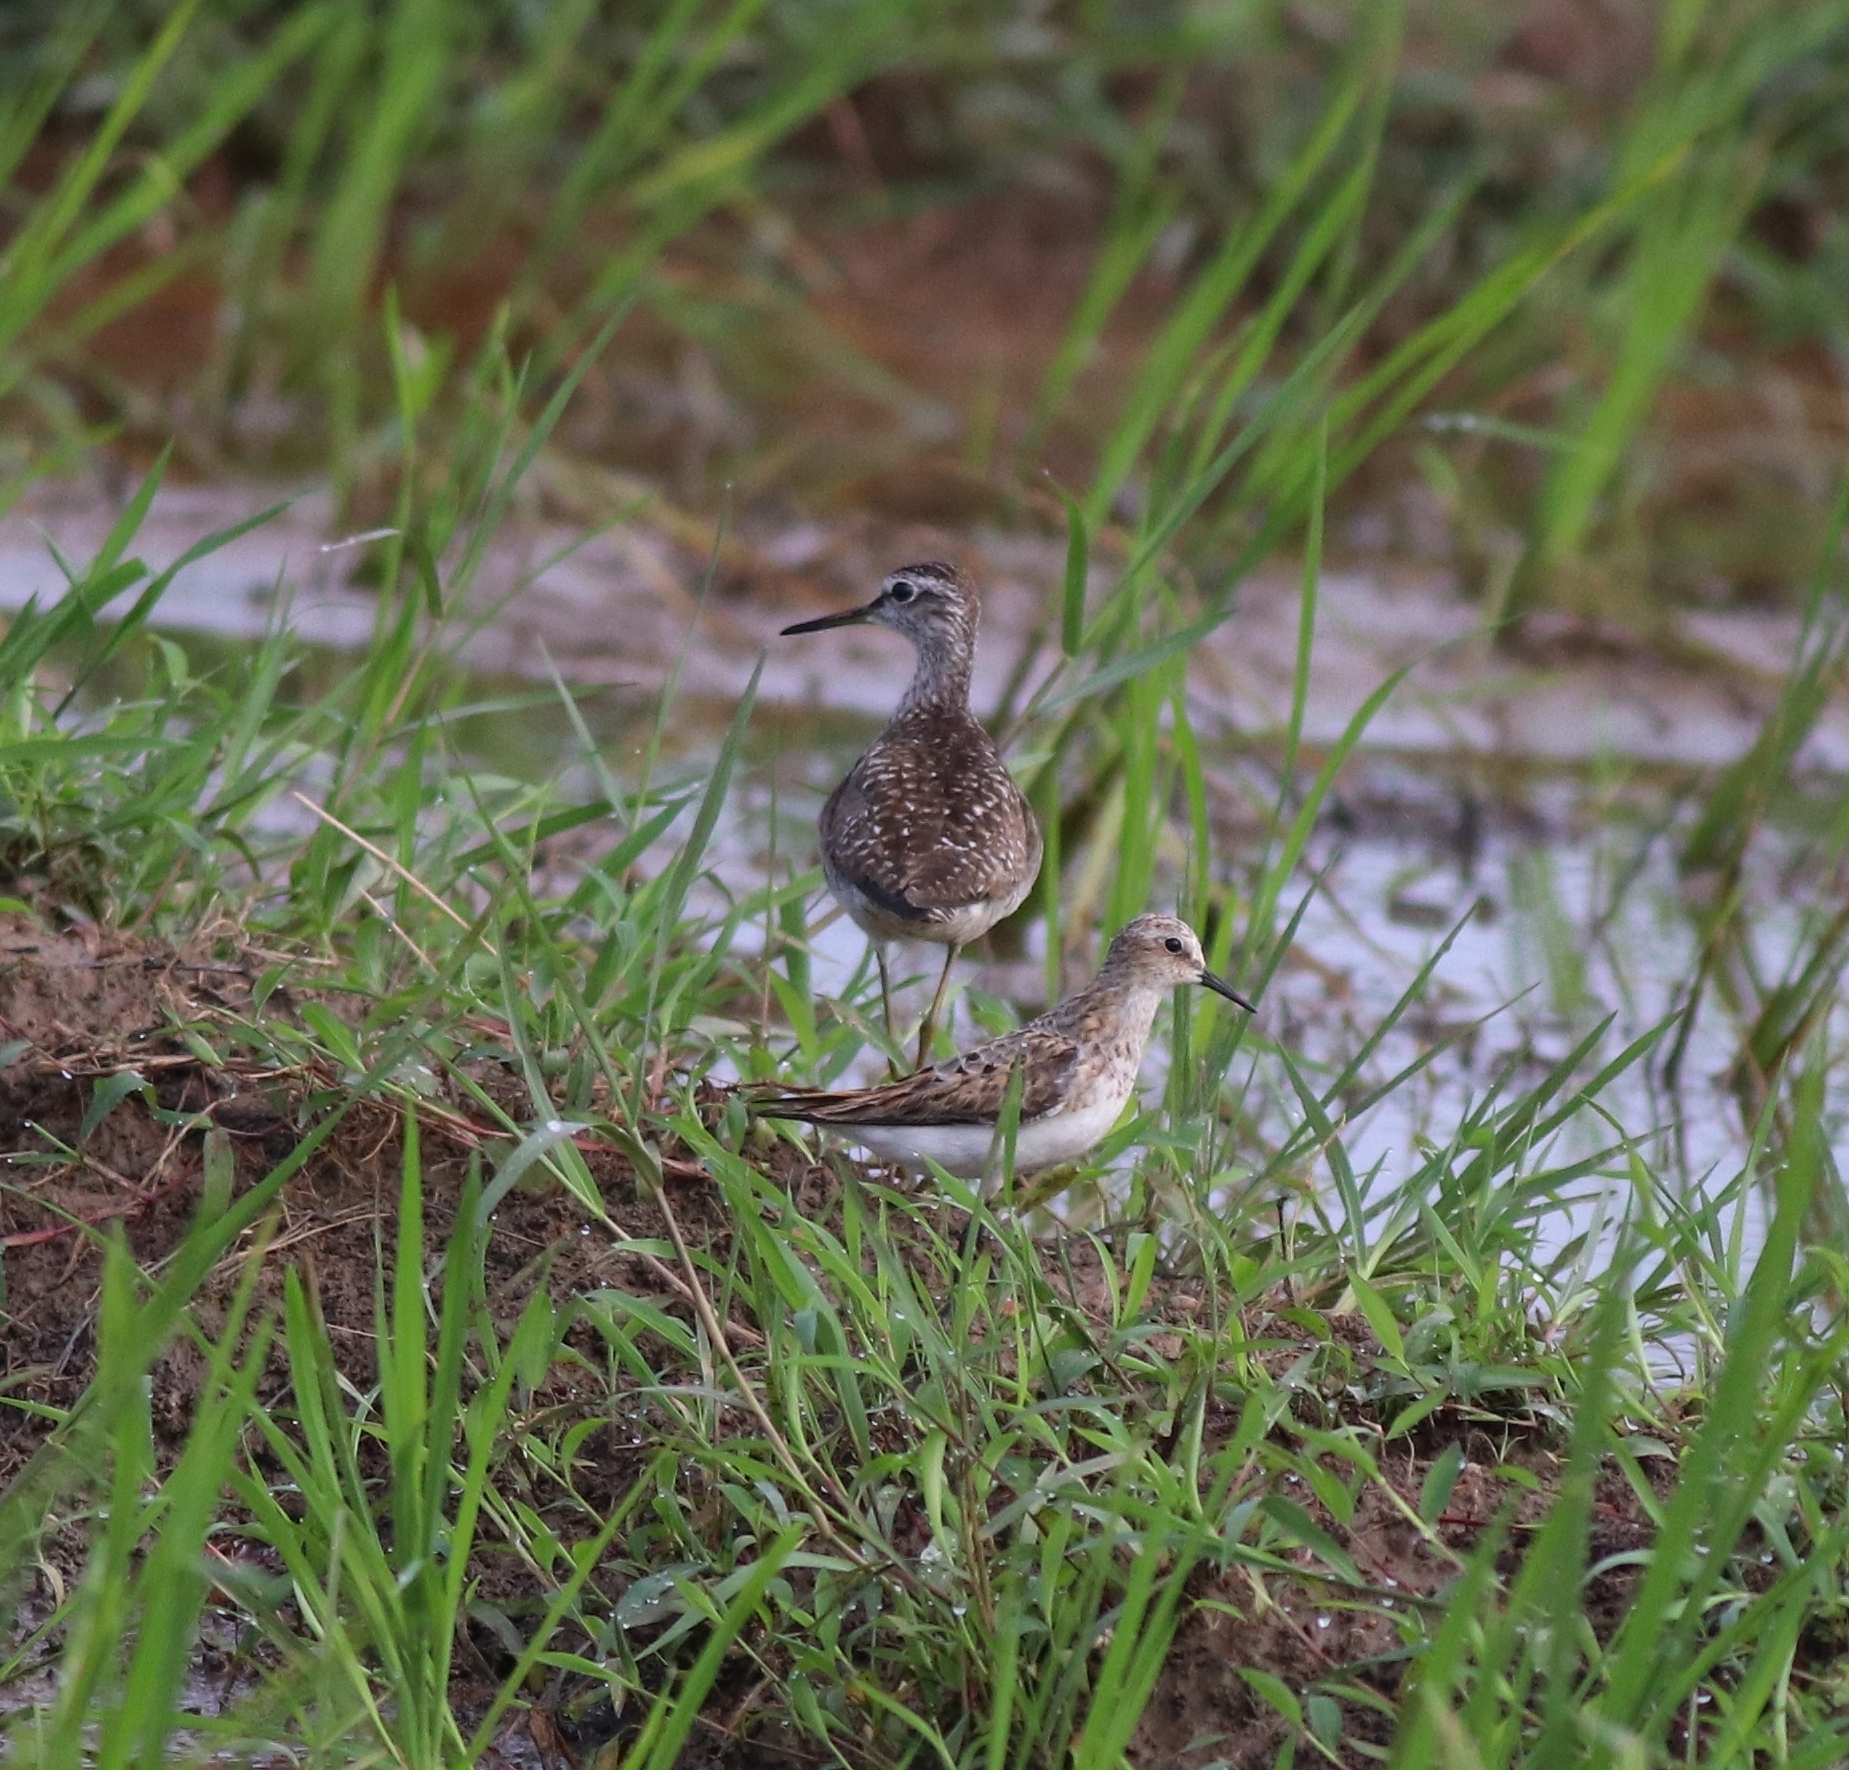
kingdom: Animalia
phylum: Chordata
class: Aves
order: Charadriiformes
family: Scolopacidae
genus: Tringa
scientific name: Tringa glareola
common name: Wood sandpiper
